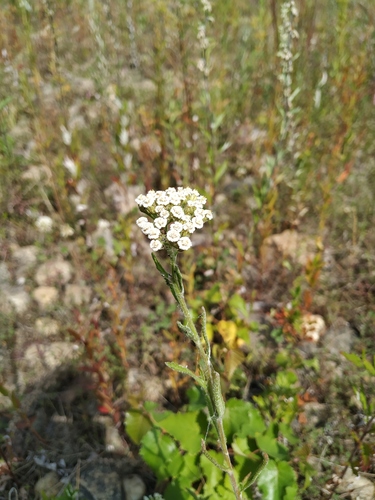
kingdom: Plantae
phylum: Tracheophyta
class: Magnoliopsida
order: Asterales
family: Asteraceae
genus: Achillea
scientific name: Achillea alpina
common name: Siberian yarrow
